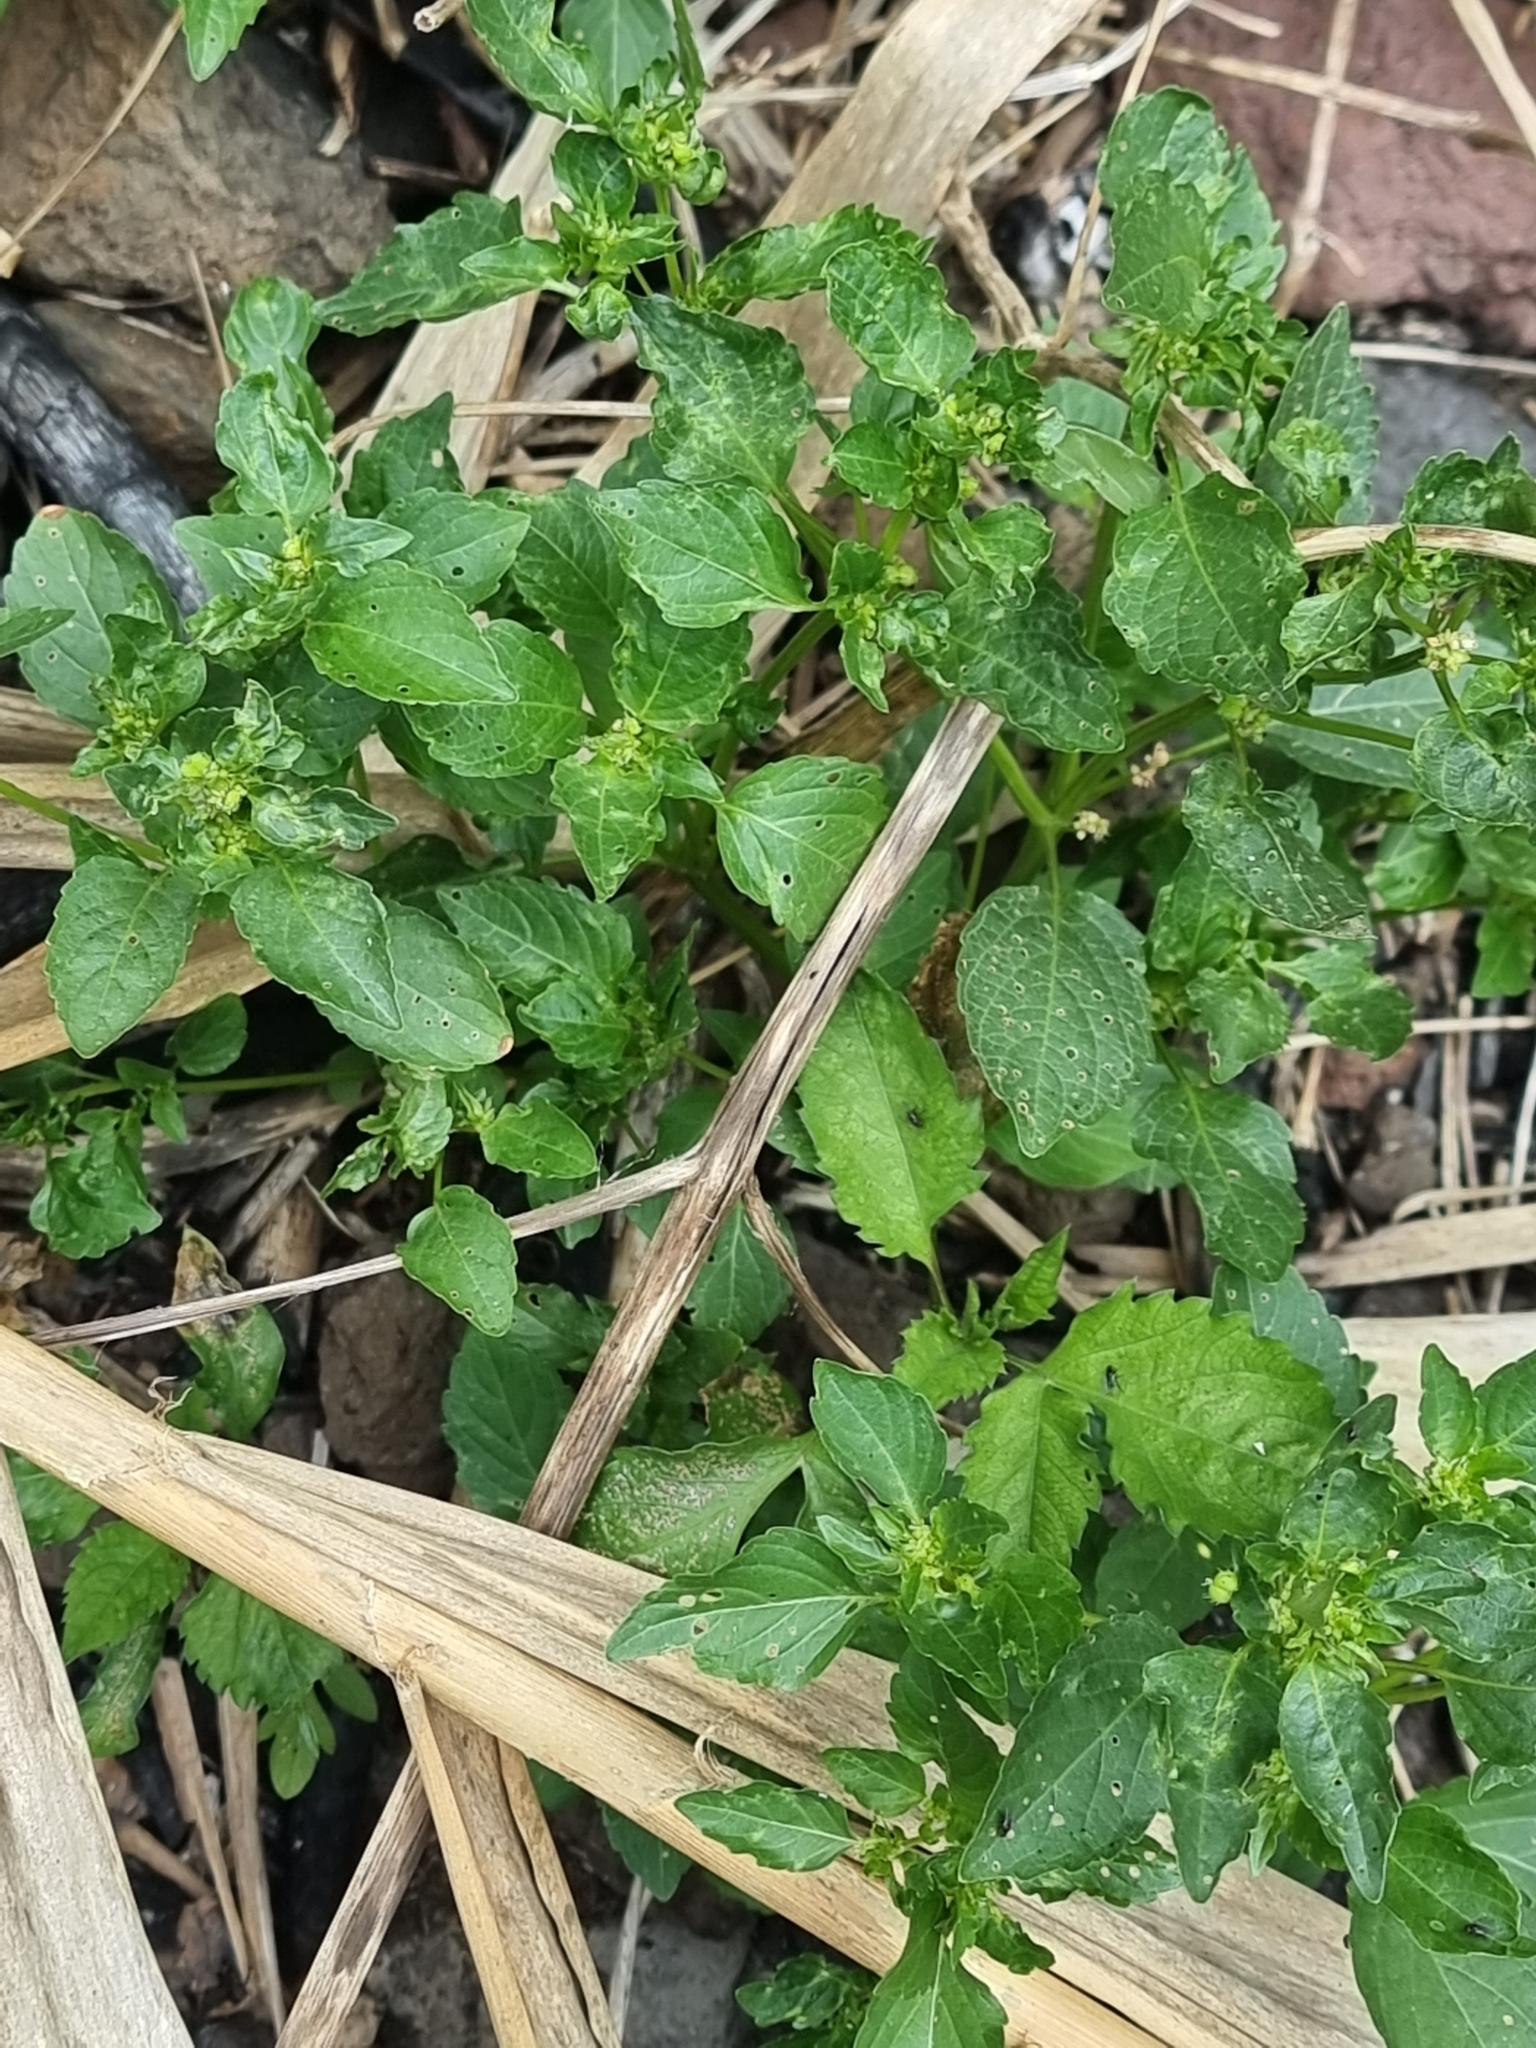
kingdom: Plantae
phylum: Tracheophyta
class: Magnoliopsida
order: Malpighiales
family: Euphorbiaceae
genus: Mercurialis
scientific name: Mercurialis annua
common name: Annual mercury
